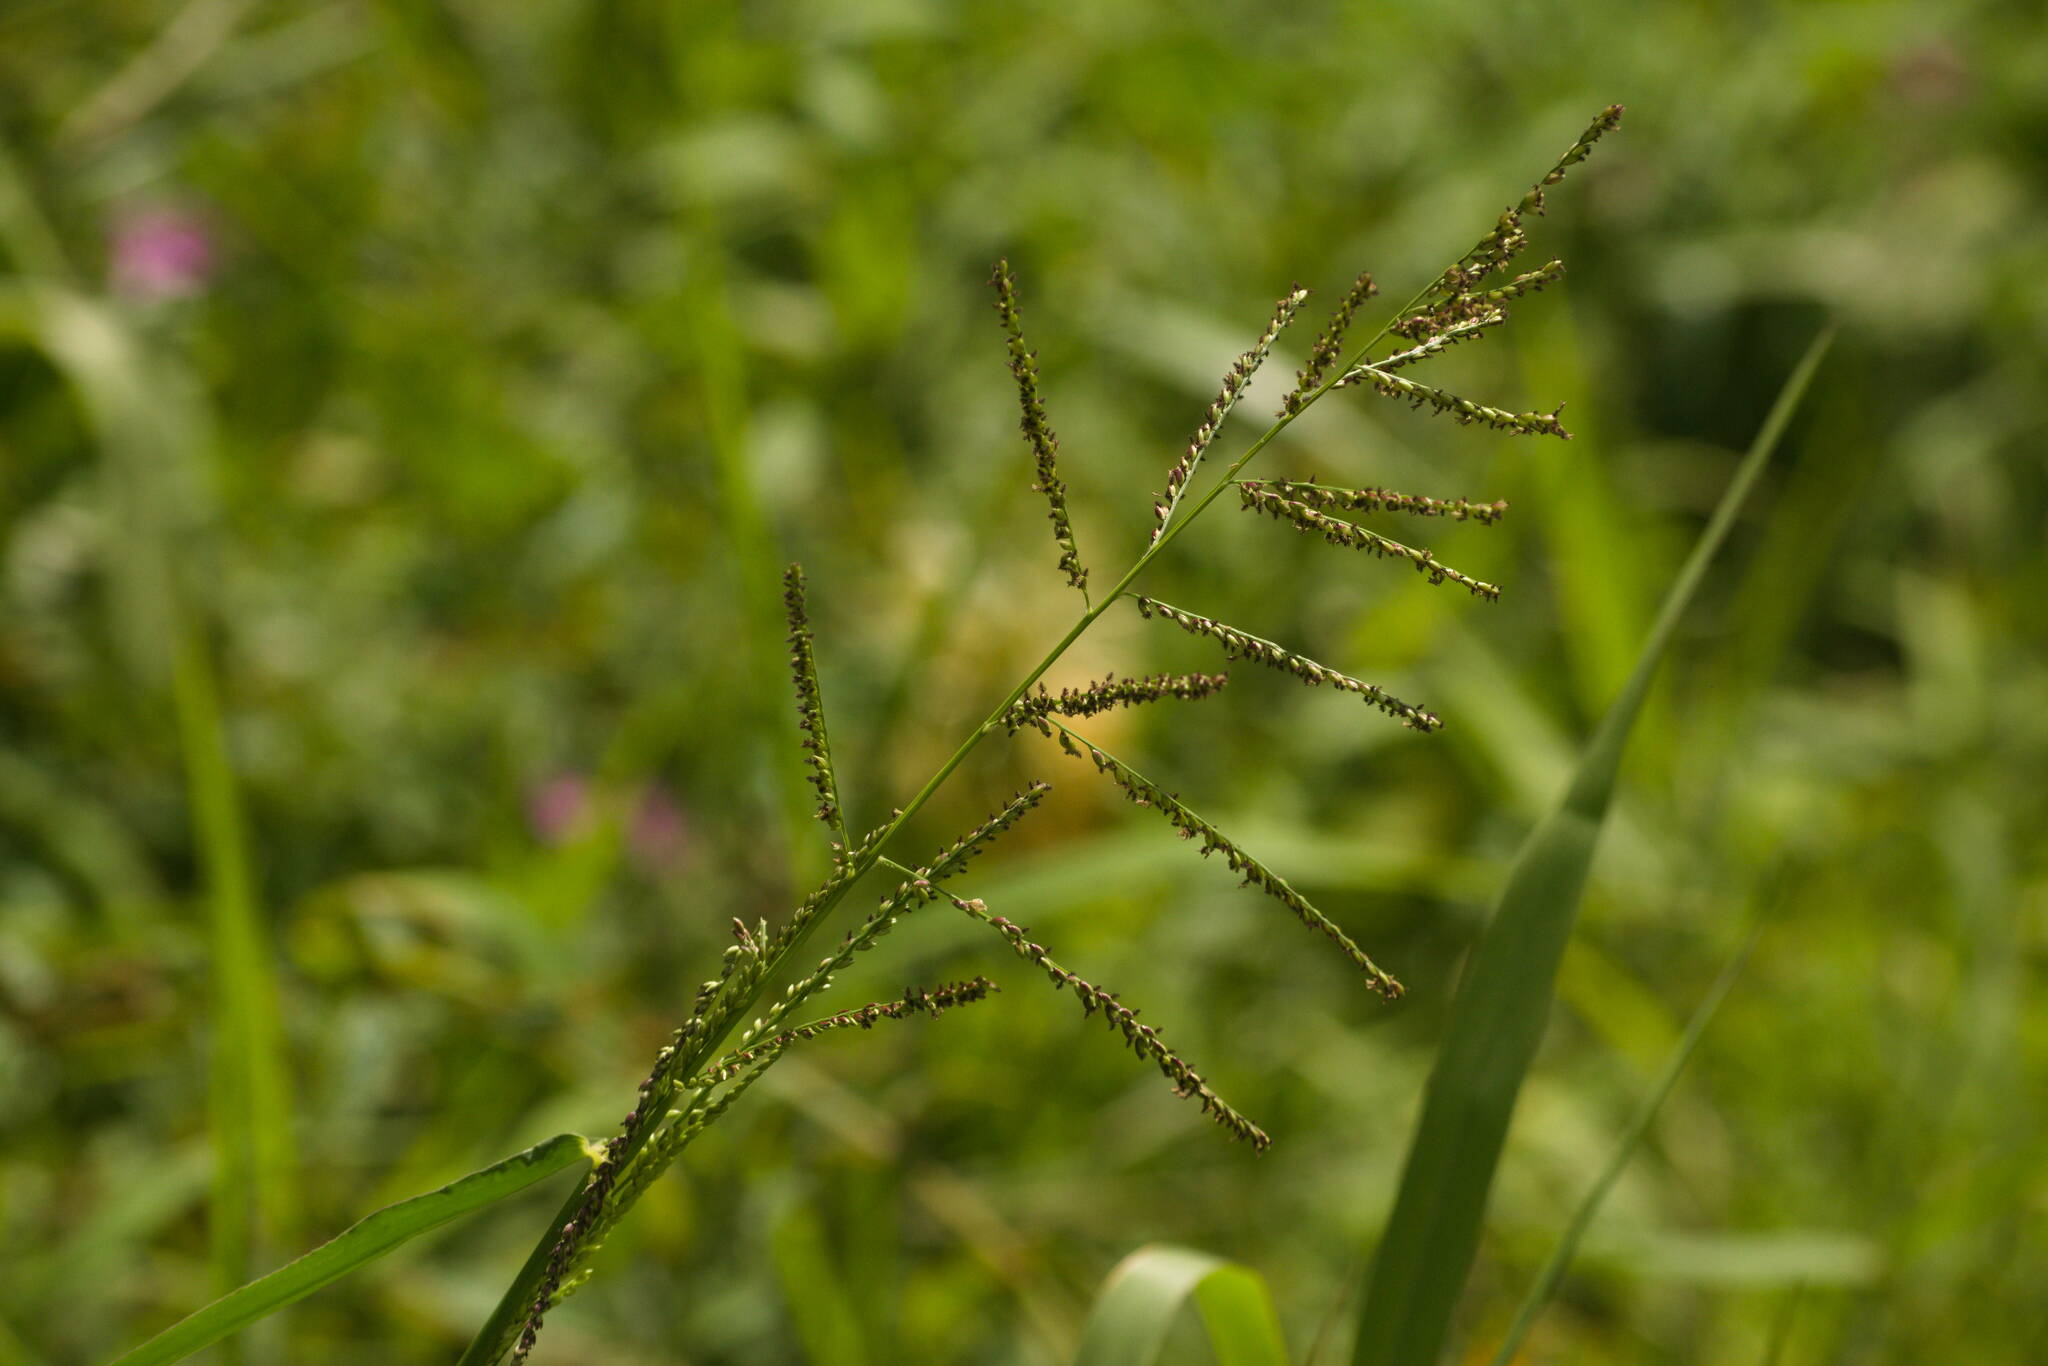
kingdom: Plantae
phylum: Tracheophyta
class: Liliopsida
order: Poales
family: Poaceae
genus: Urochloa
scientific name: Urochloa mutica
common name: Para grass
